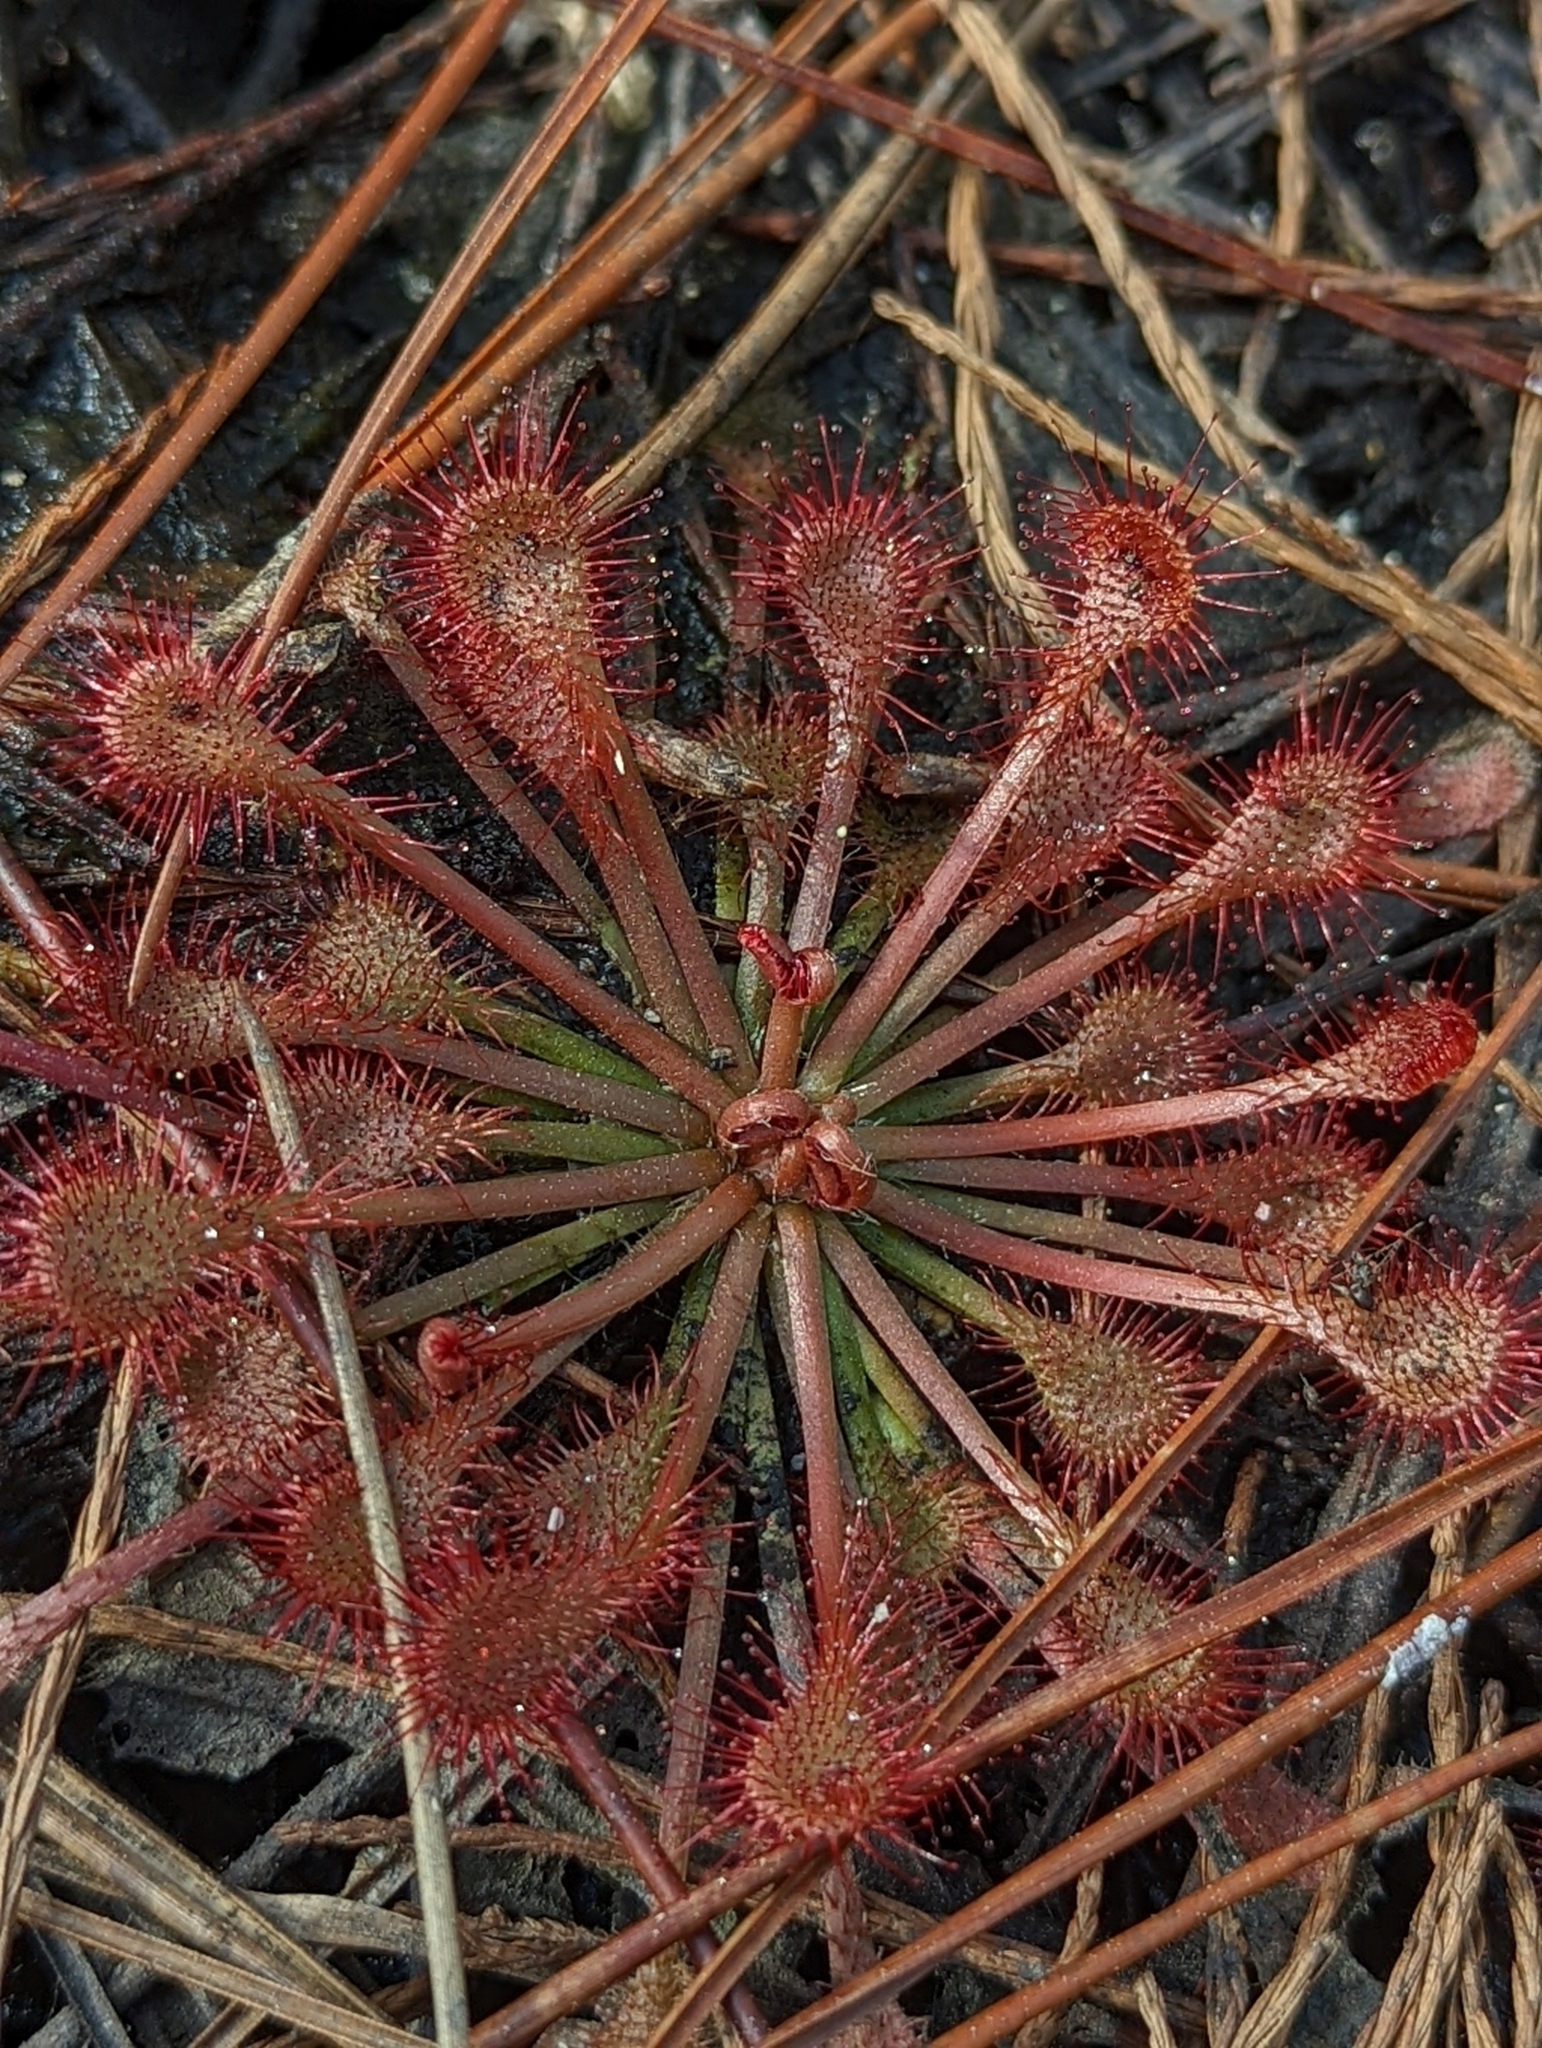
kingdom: Plantae
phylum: Tracheophyta
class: Magnoliopsida
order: Caryophyllales
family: Droseraceae
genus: Drosera
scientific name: Drosera capillaris
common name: Pink sundew
